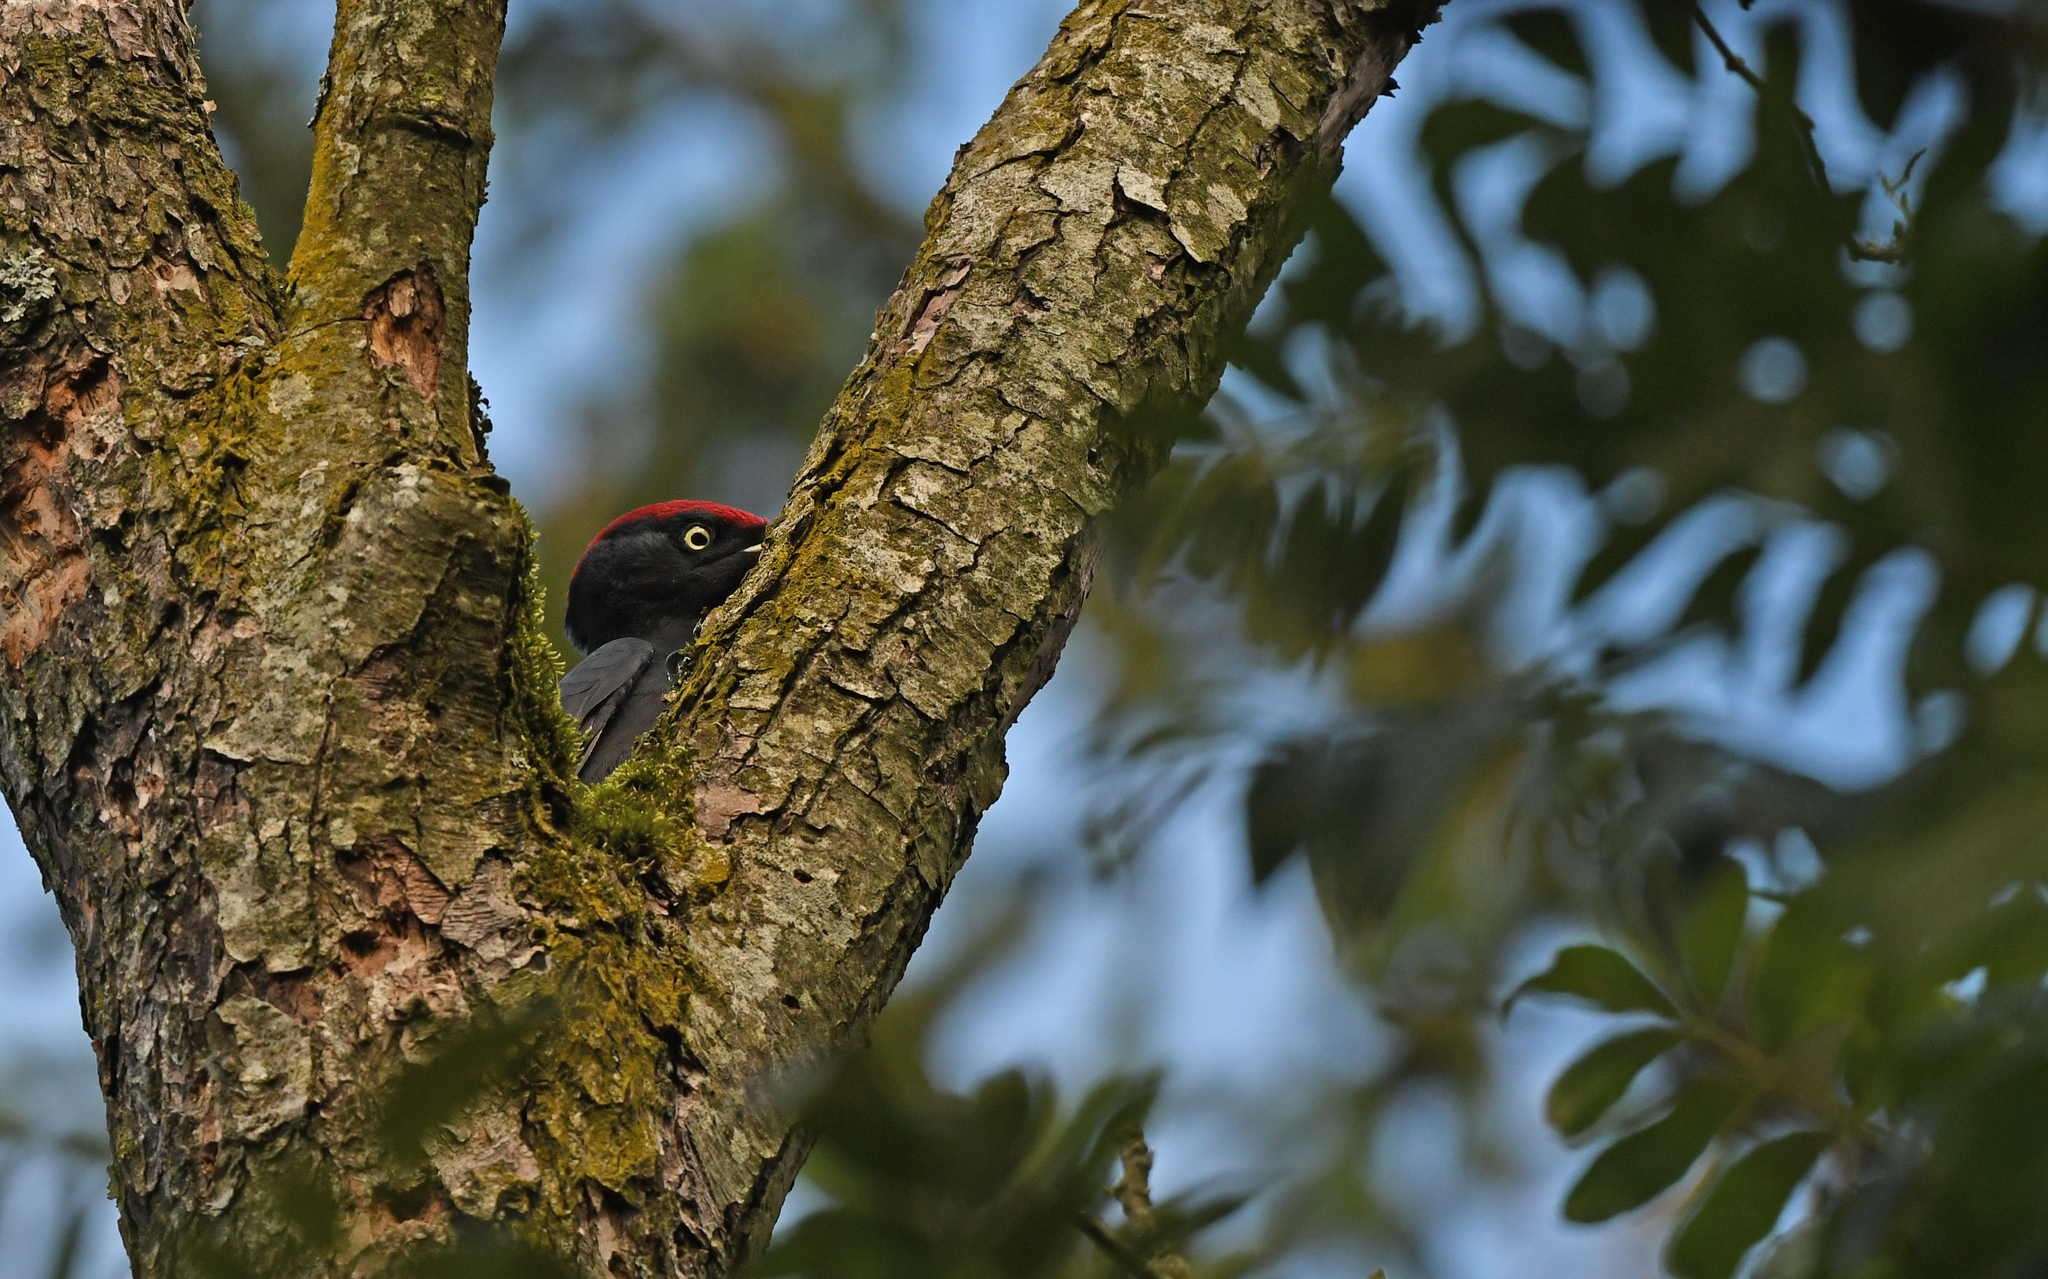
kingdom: Animalia
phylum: Chordata
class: Aves
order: Piciformes
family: Picidae
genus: Dryocopus
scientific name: Dryocopus martius
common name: Black woodpecker
